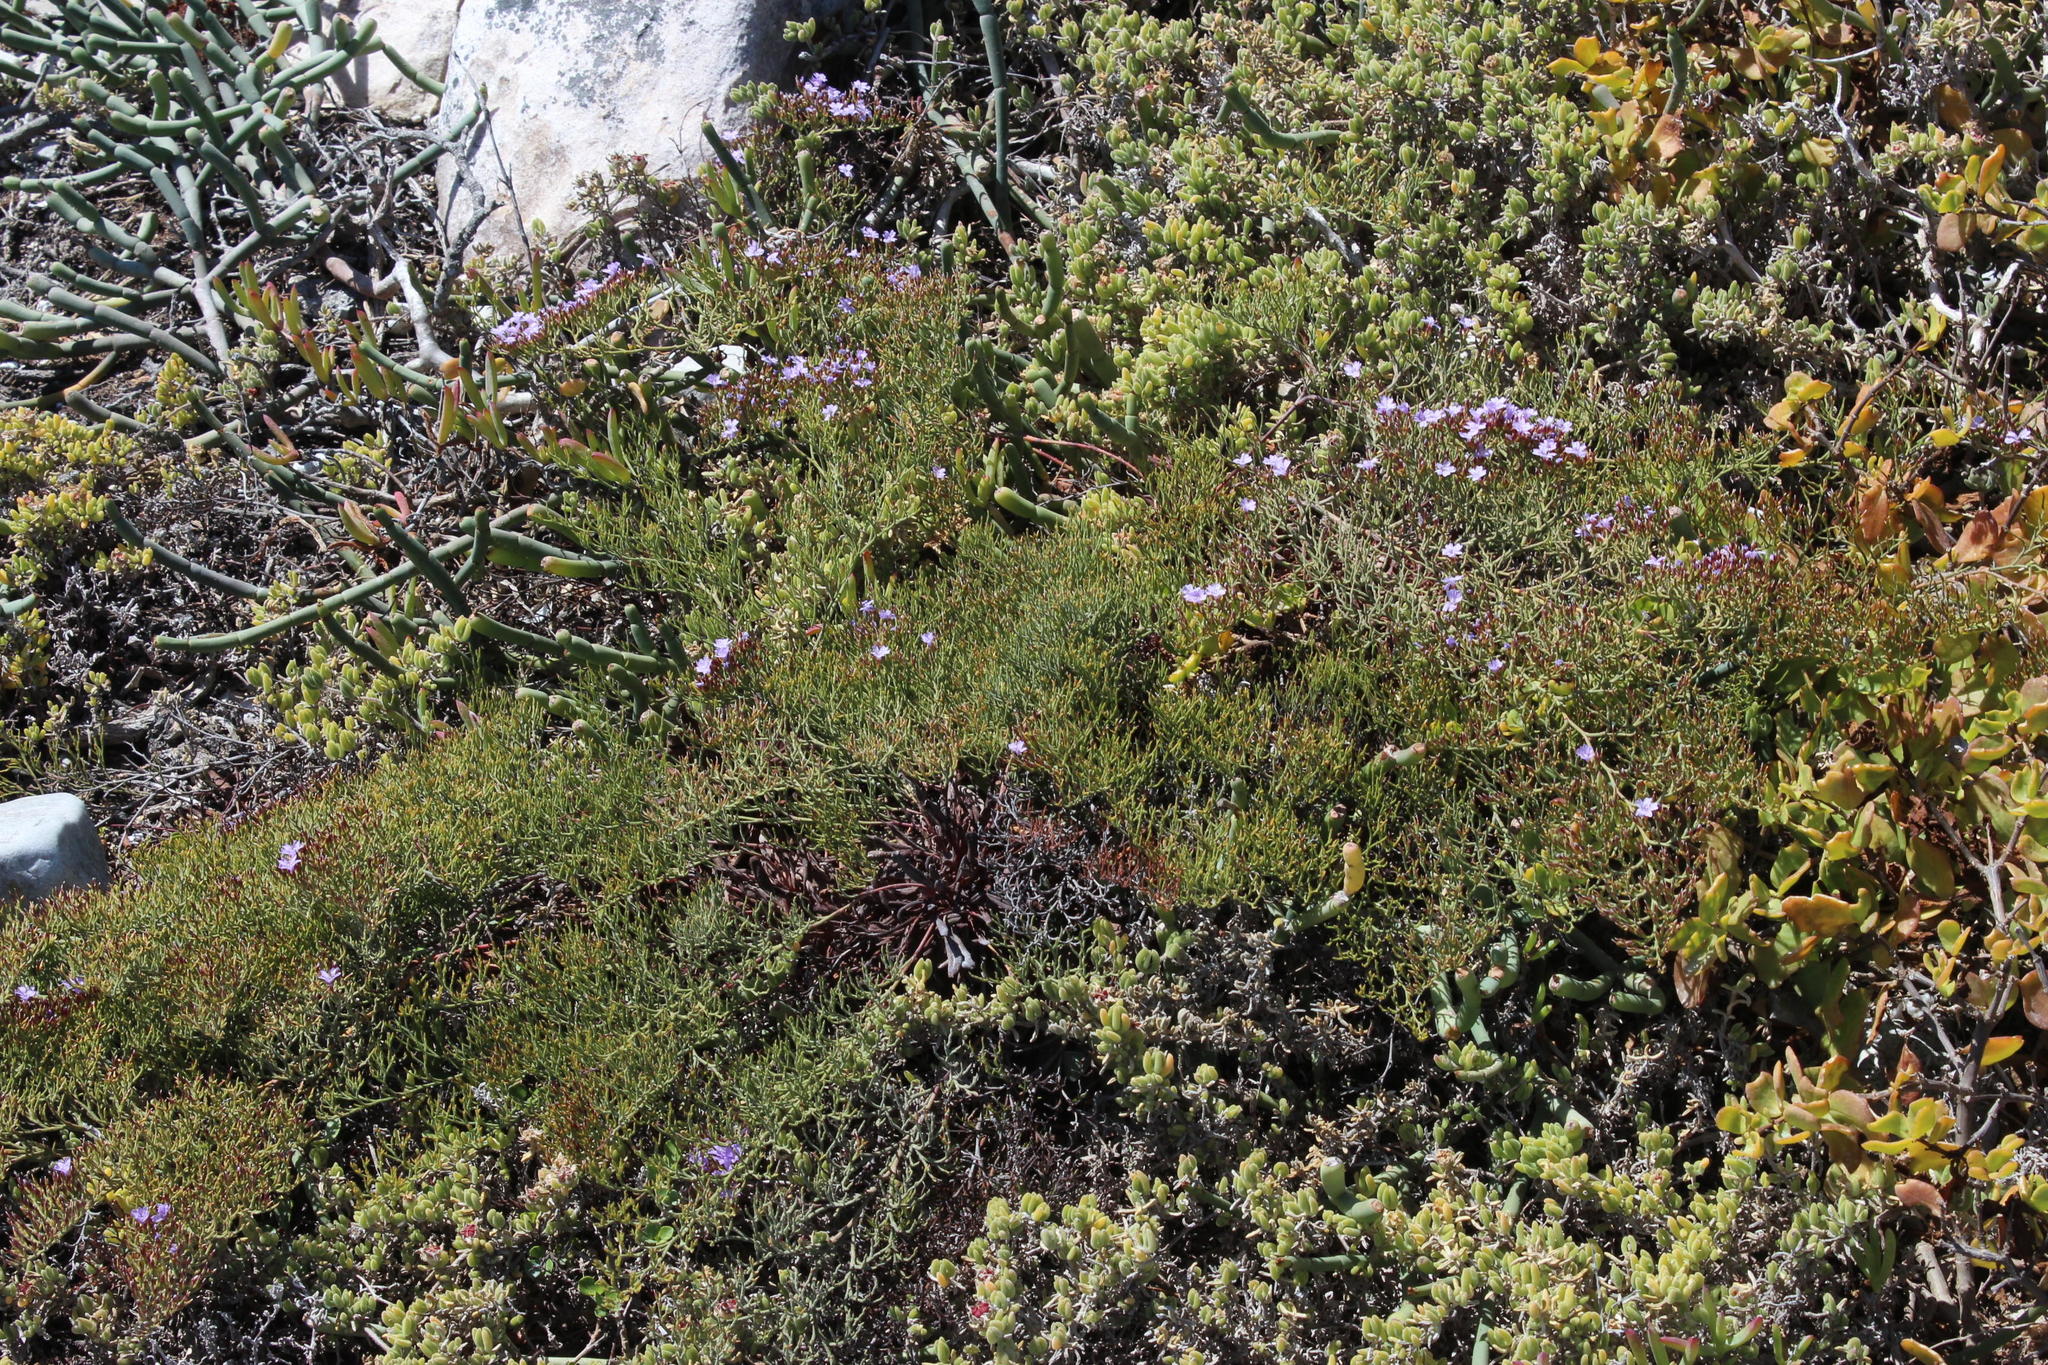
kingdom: Plantae
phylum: Tracheophyta
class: Magnoliopsida
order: Caryophyllales
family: Plumbaginaceae
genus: Limonium
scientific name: Limonium scabrum
